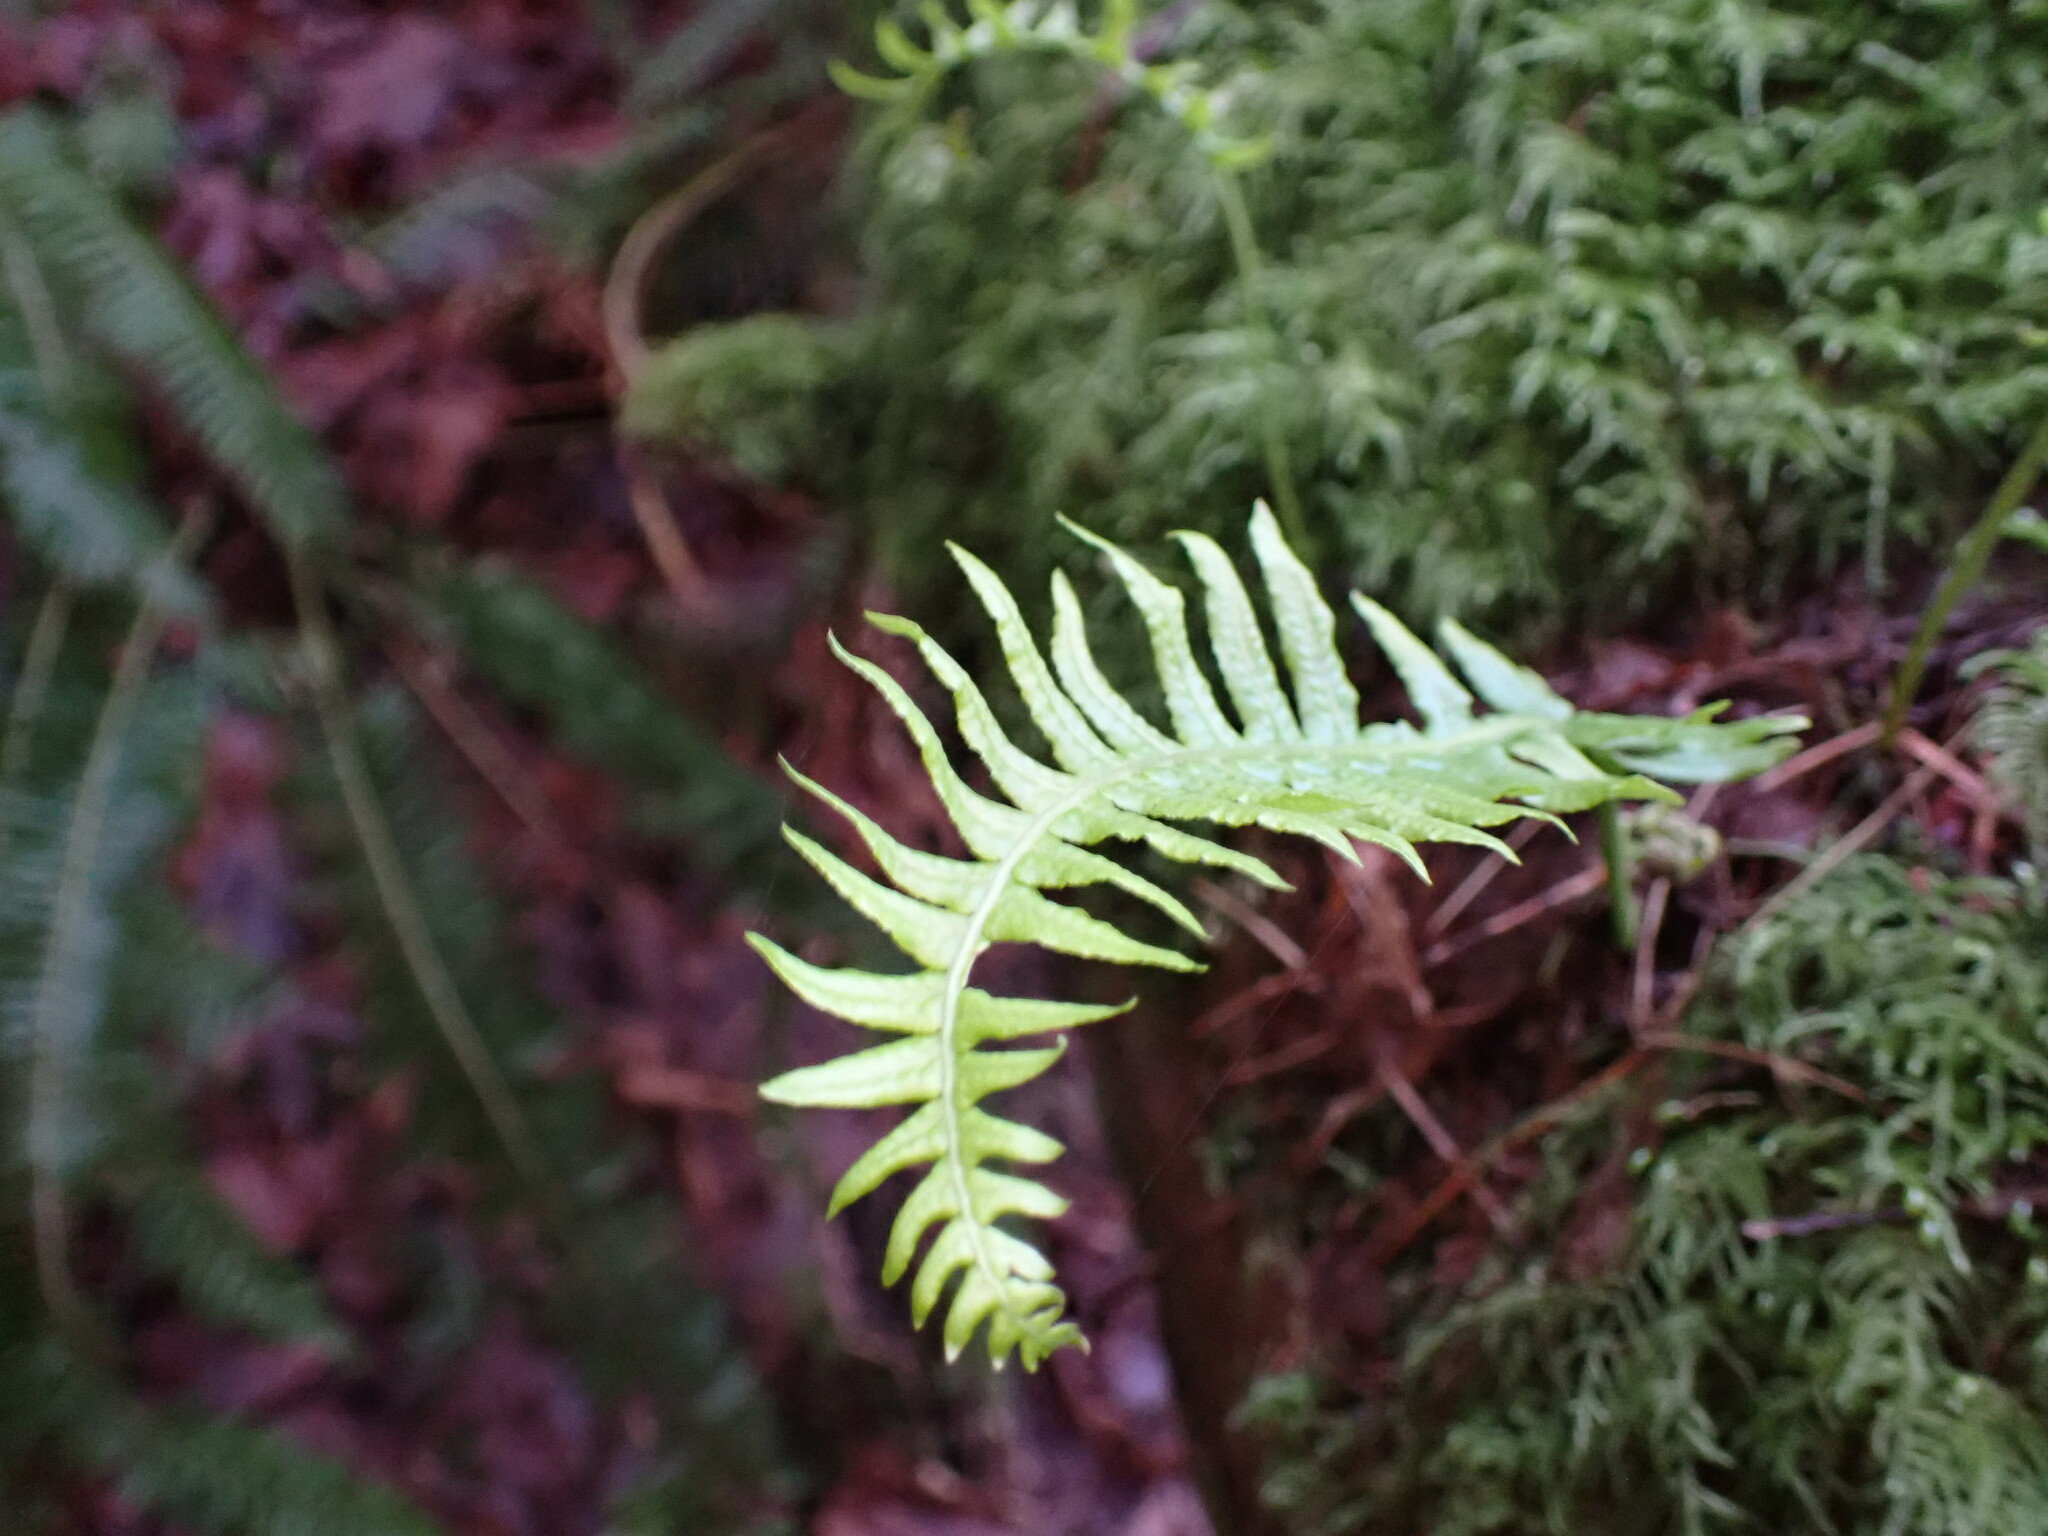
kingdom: Plantae
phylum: Tracheophyta
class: Polypodiopsida
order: Polypodiales
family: Polypodiaceae
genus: Polypodium
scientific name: Polypodium glycyrrhiza
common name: Licorice fern
